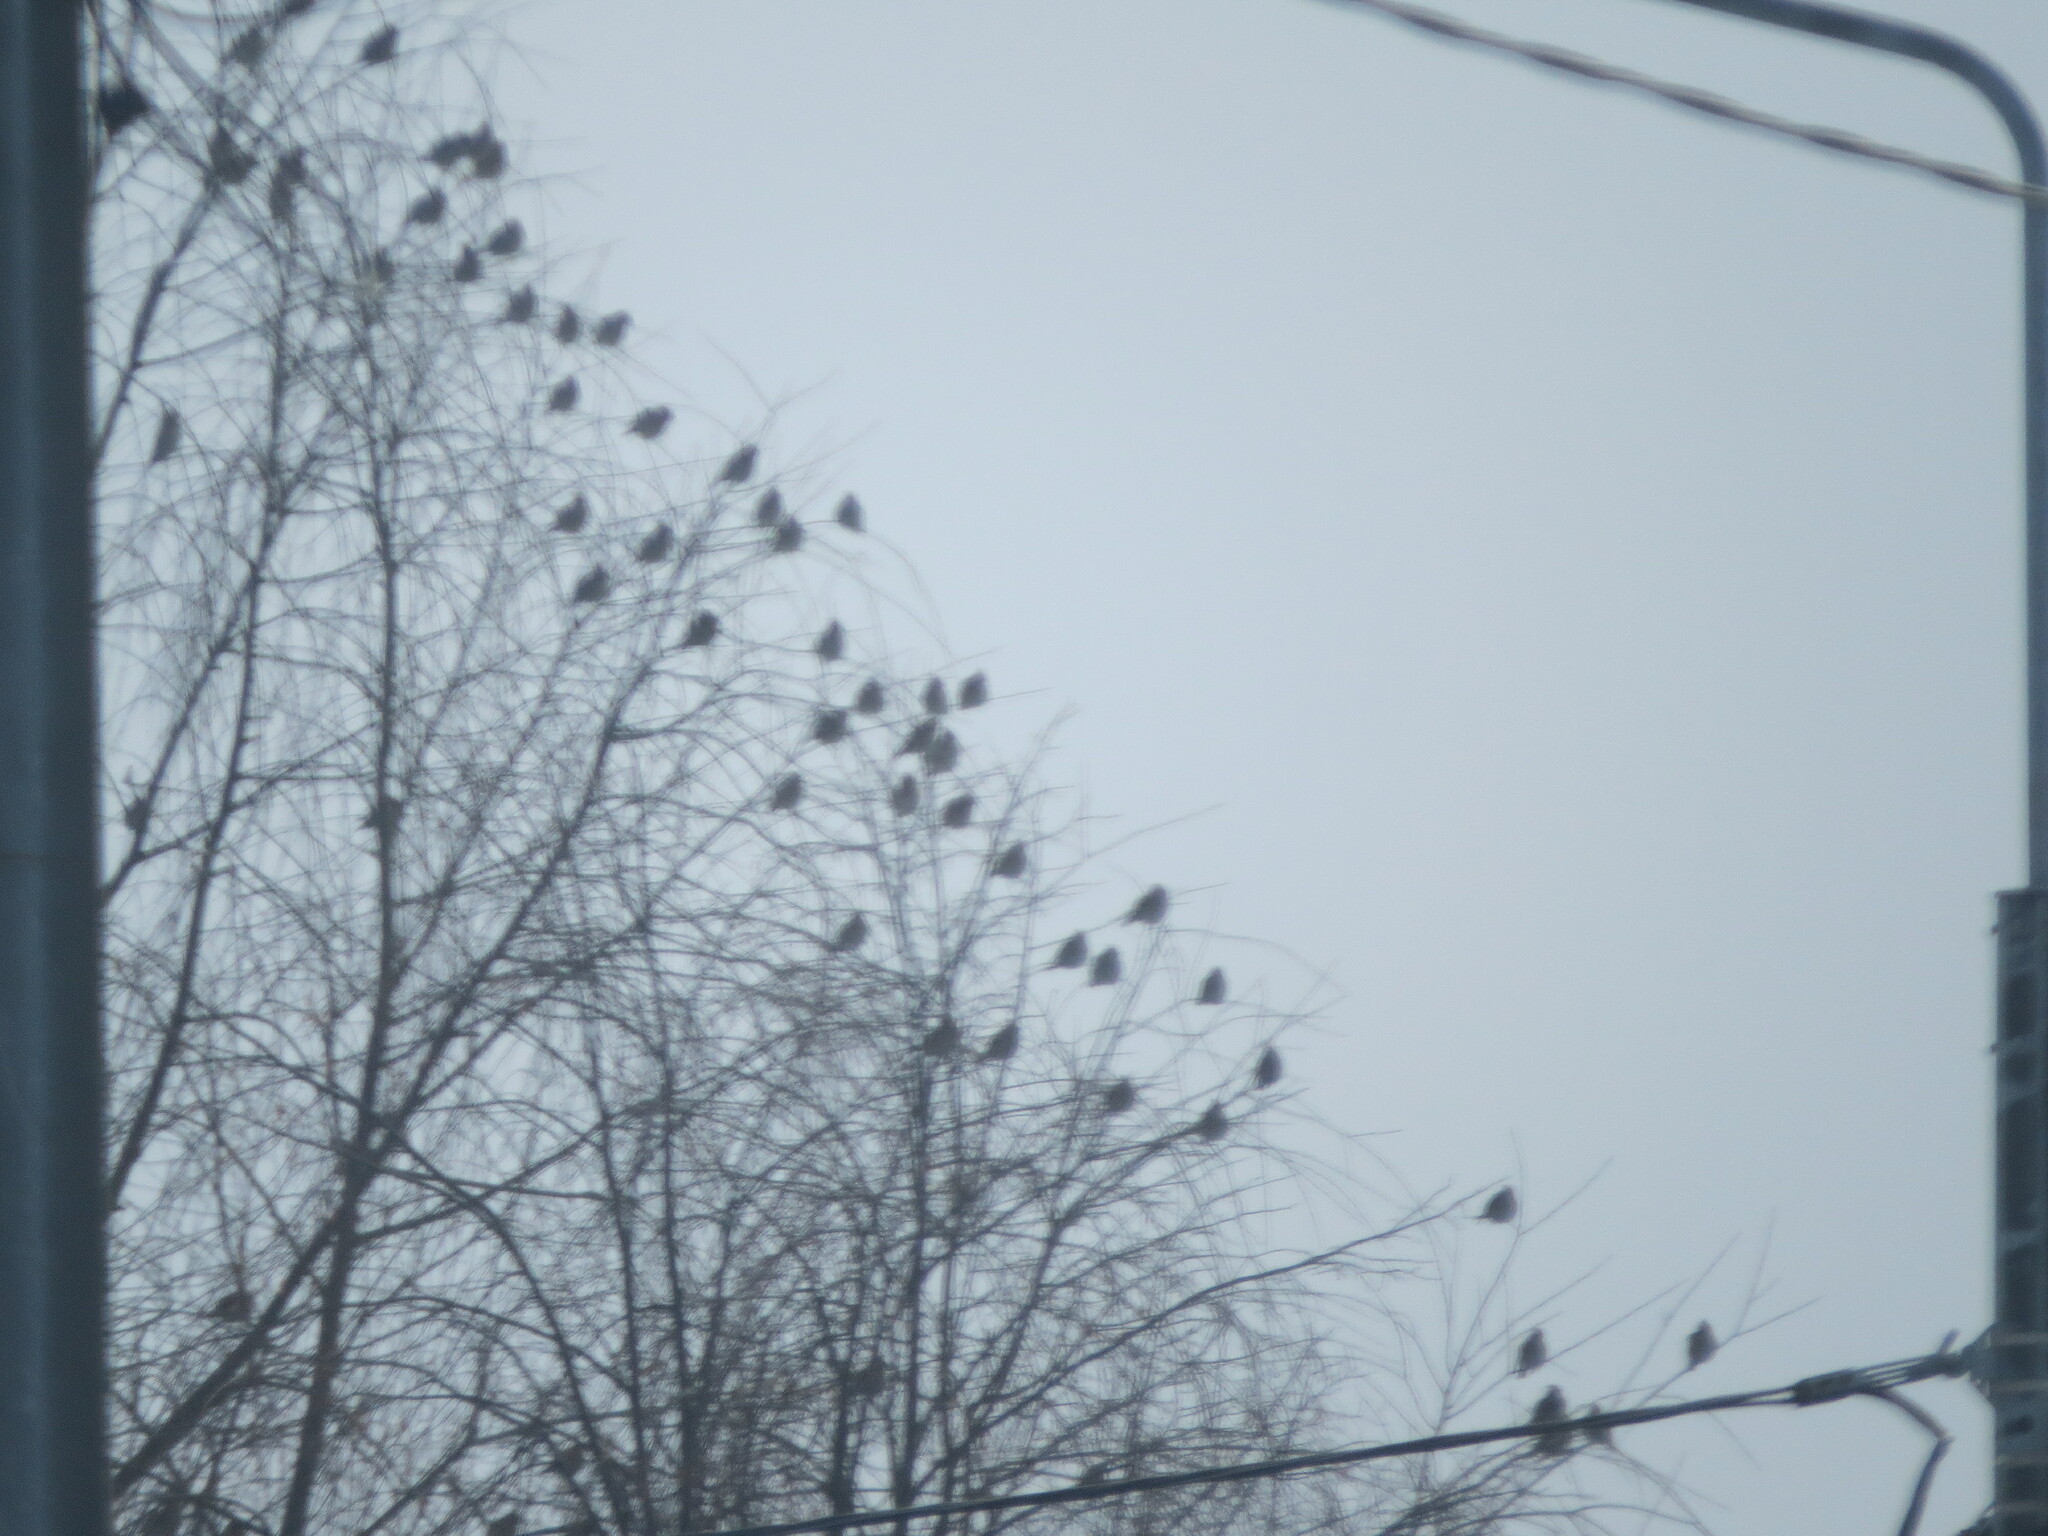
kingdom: Animalia
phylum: Chordata
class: Aves
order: Passeriformes
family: Bombycillidae
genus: Bombycilla
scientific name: Bombycilla garrulus
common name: Bohemian waxwing
